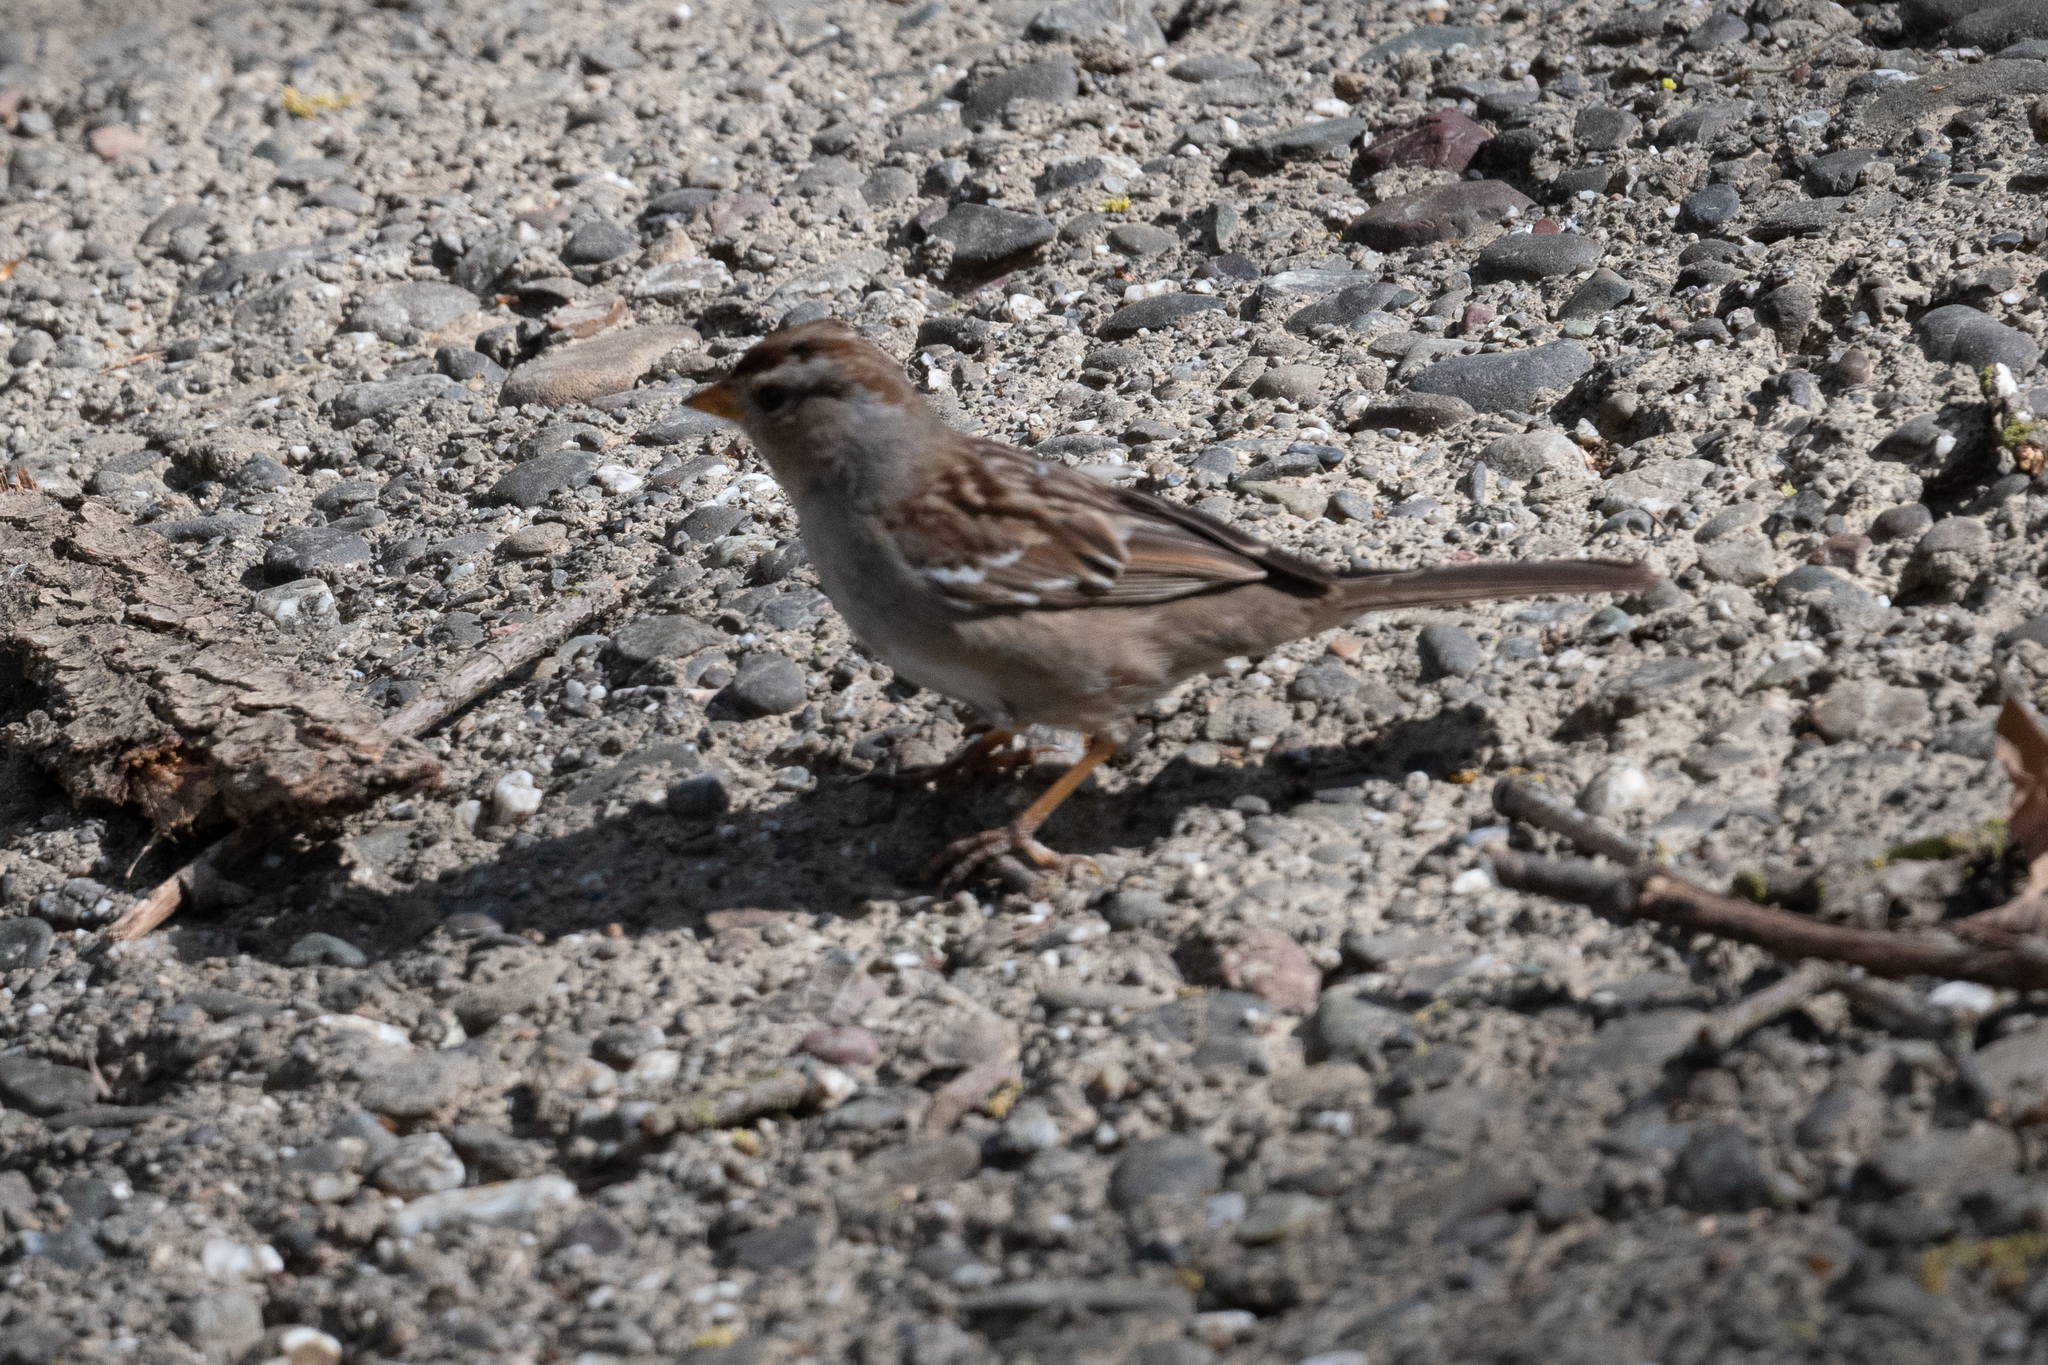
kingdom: Animalia
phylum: Chordata
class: Aves
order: Passeriformes
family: Passerellidae
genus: Zonotrichia
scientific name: Zonotrichia leucophrys
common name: White-crowned sparrow
